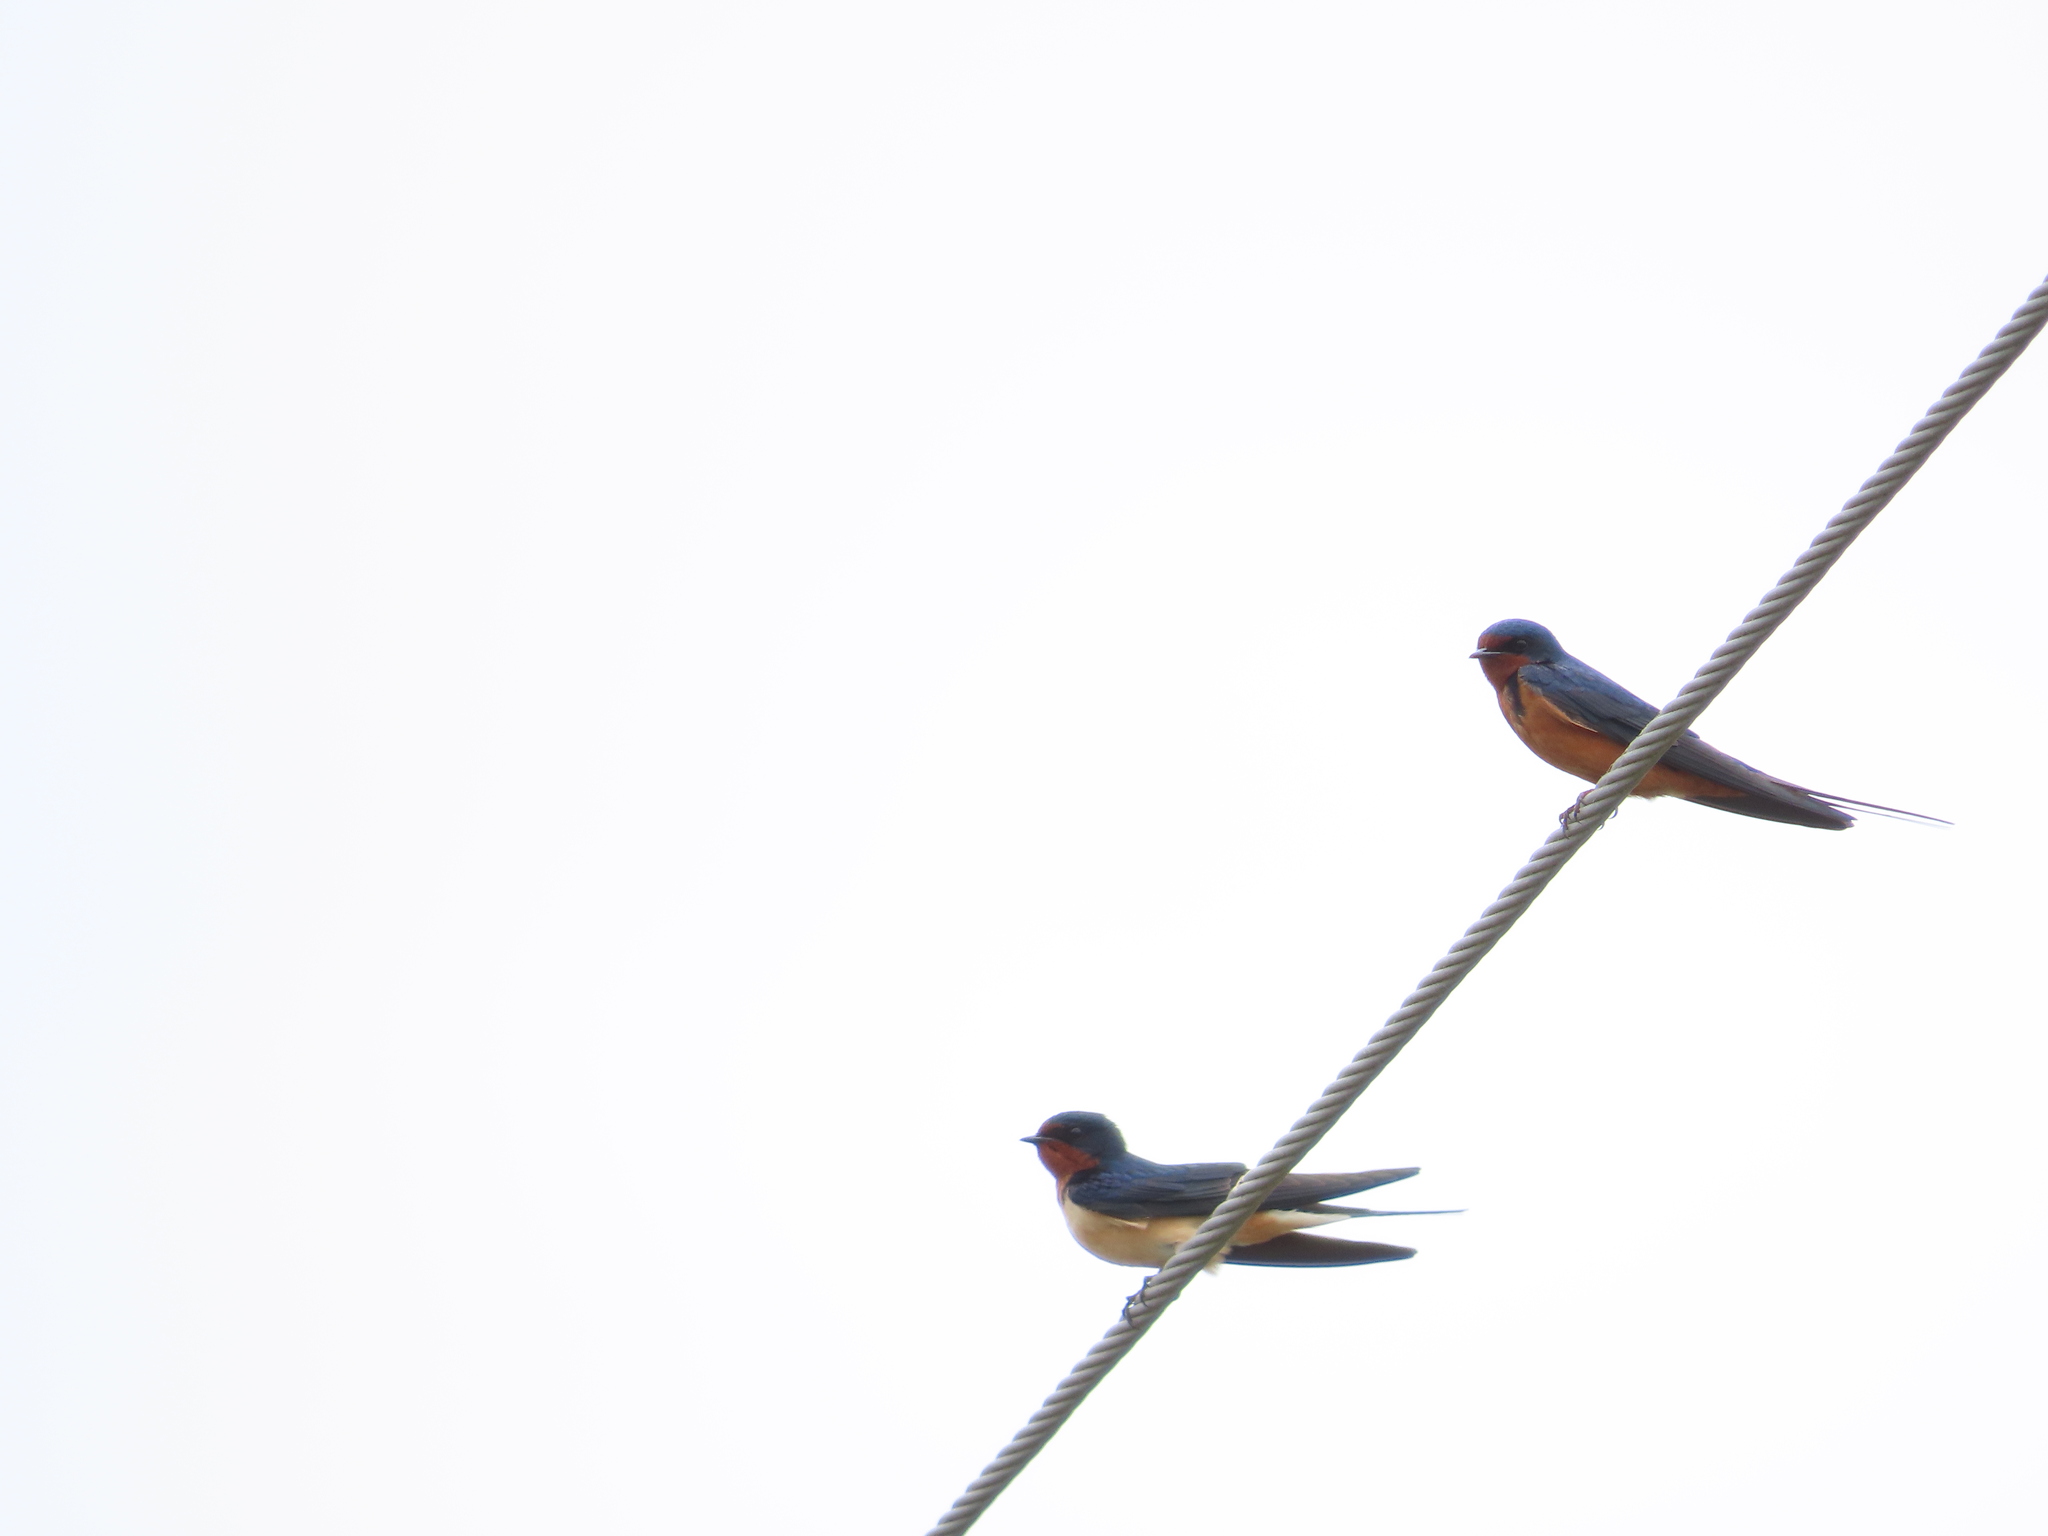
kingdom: Animalia
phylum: Chordata
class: Aves
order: Passeriformes
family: Hirundinidae
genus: Hirundo
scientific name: Hirundo rustica
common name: Barn swallow
